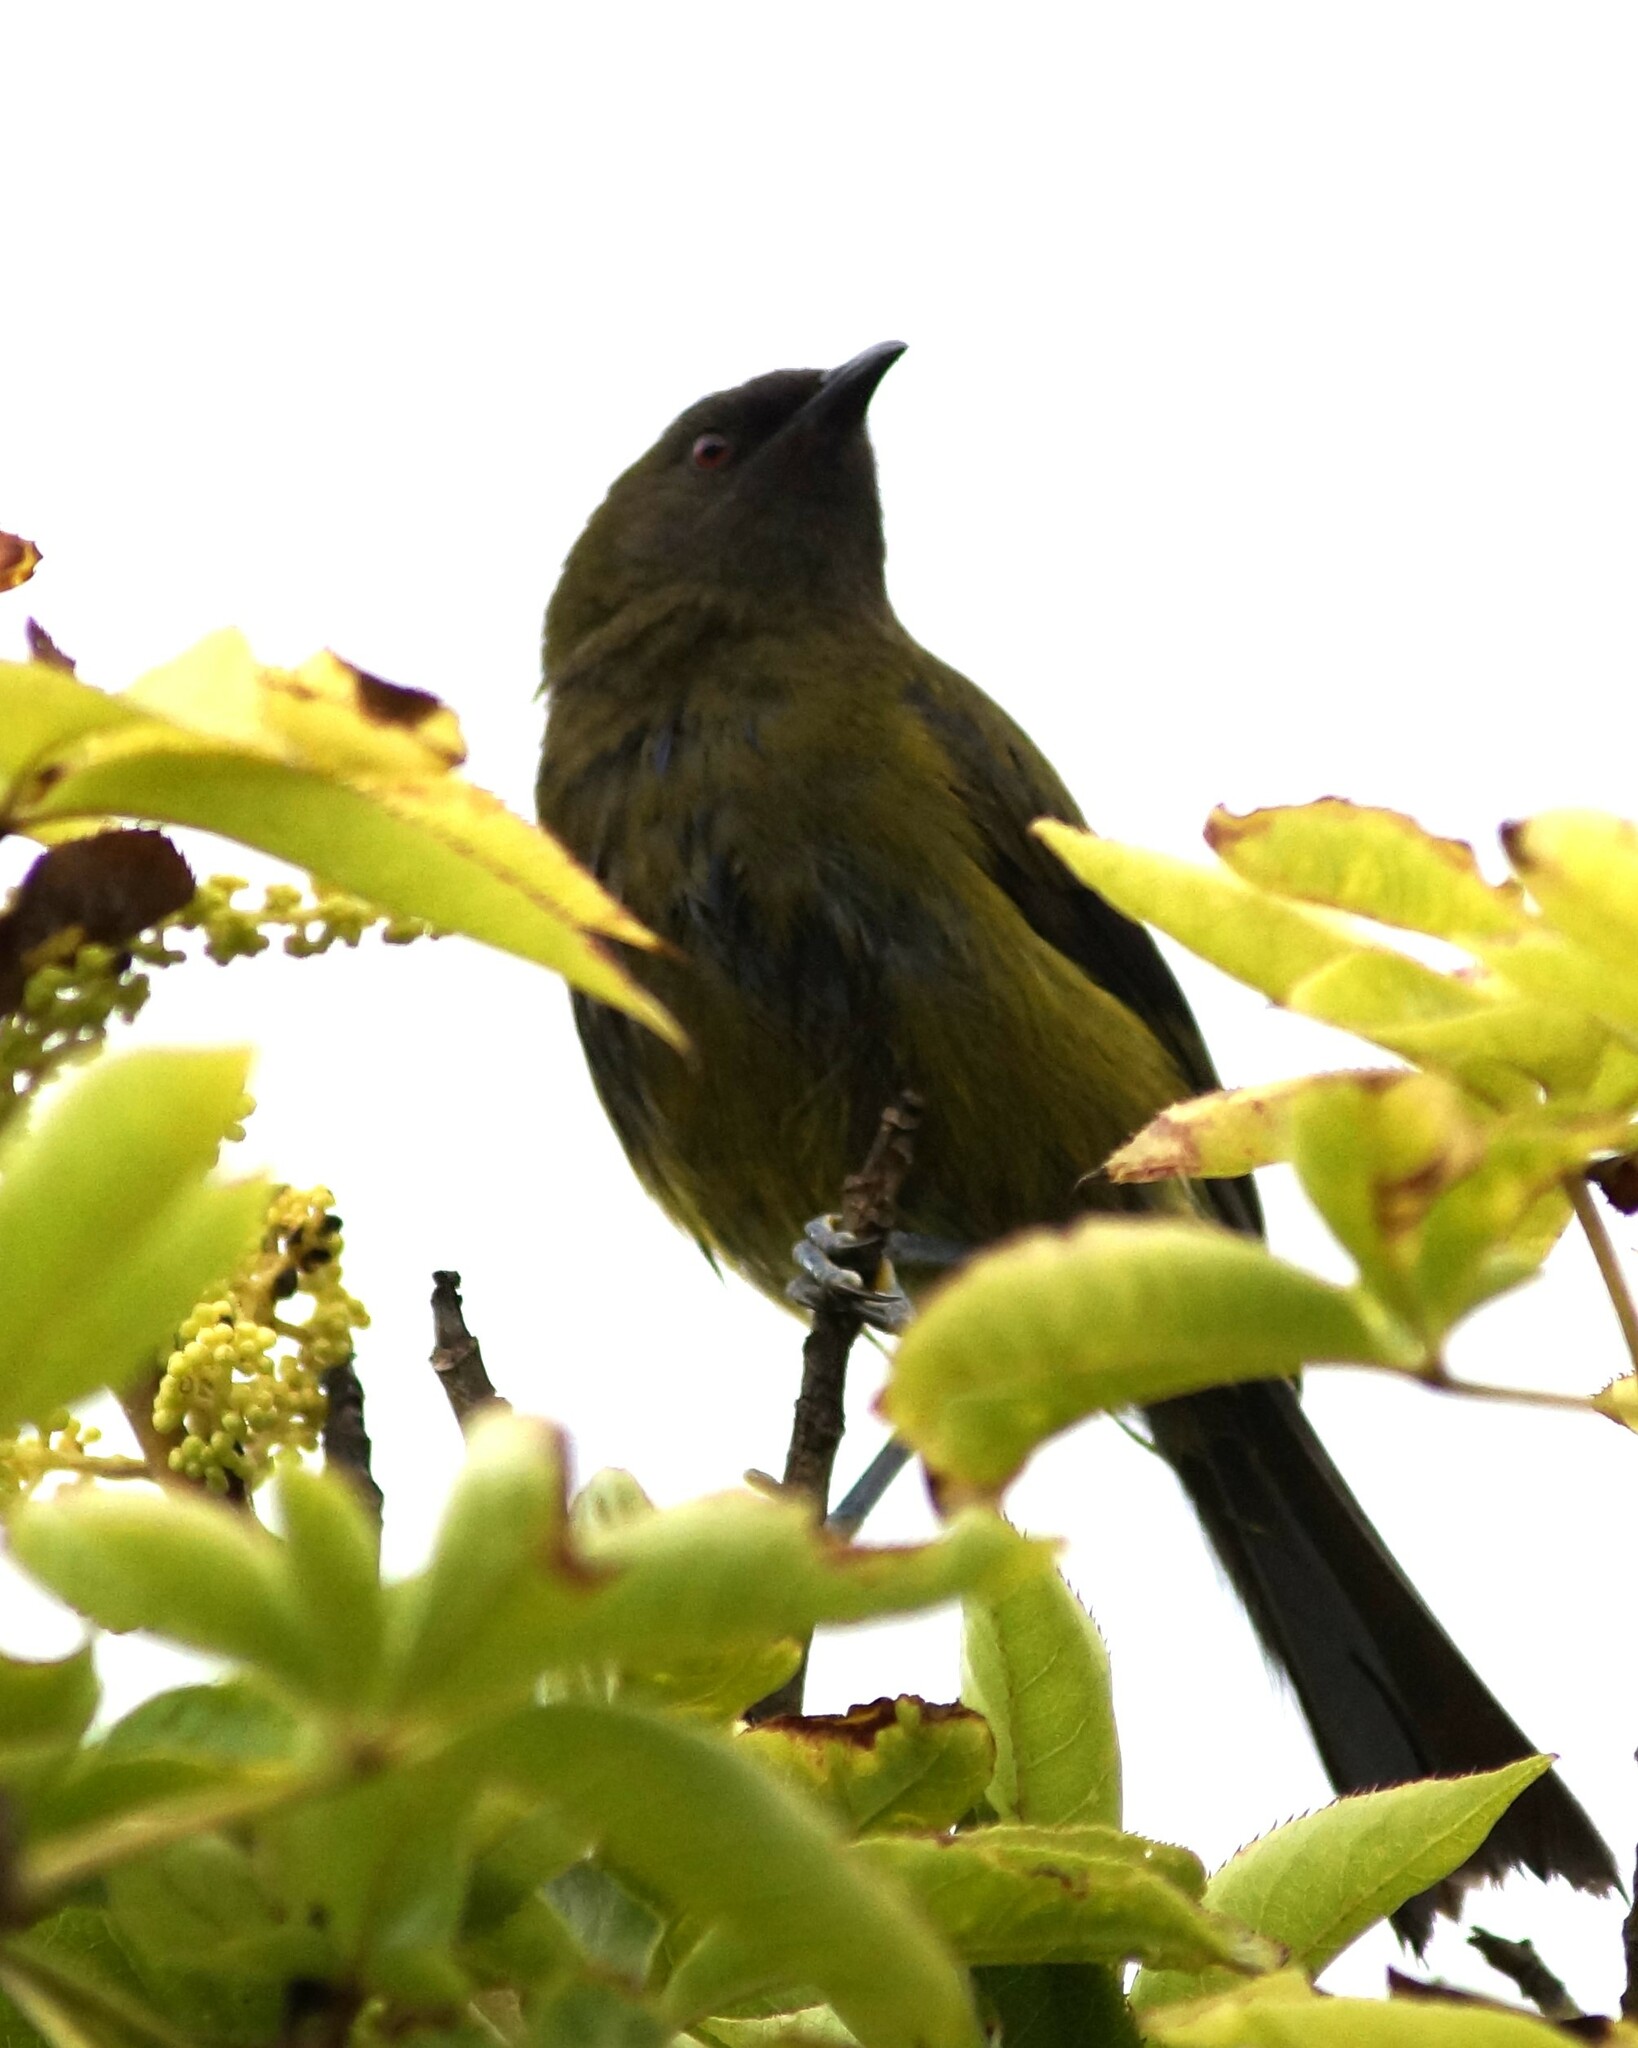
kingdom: Animalia
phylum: Chordata
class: Aves
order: Passeriformes
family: Meliphagidae
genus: Anthornis
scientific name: Anthornis melanura
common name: New zealand bellbird
